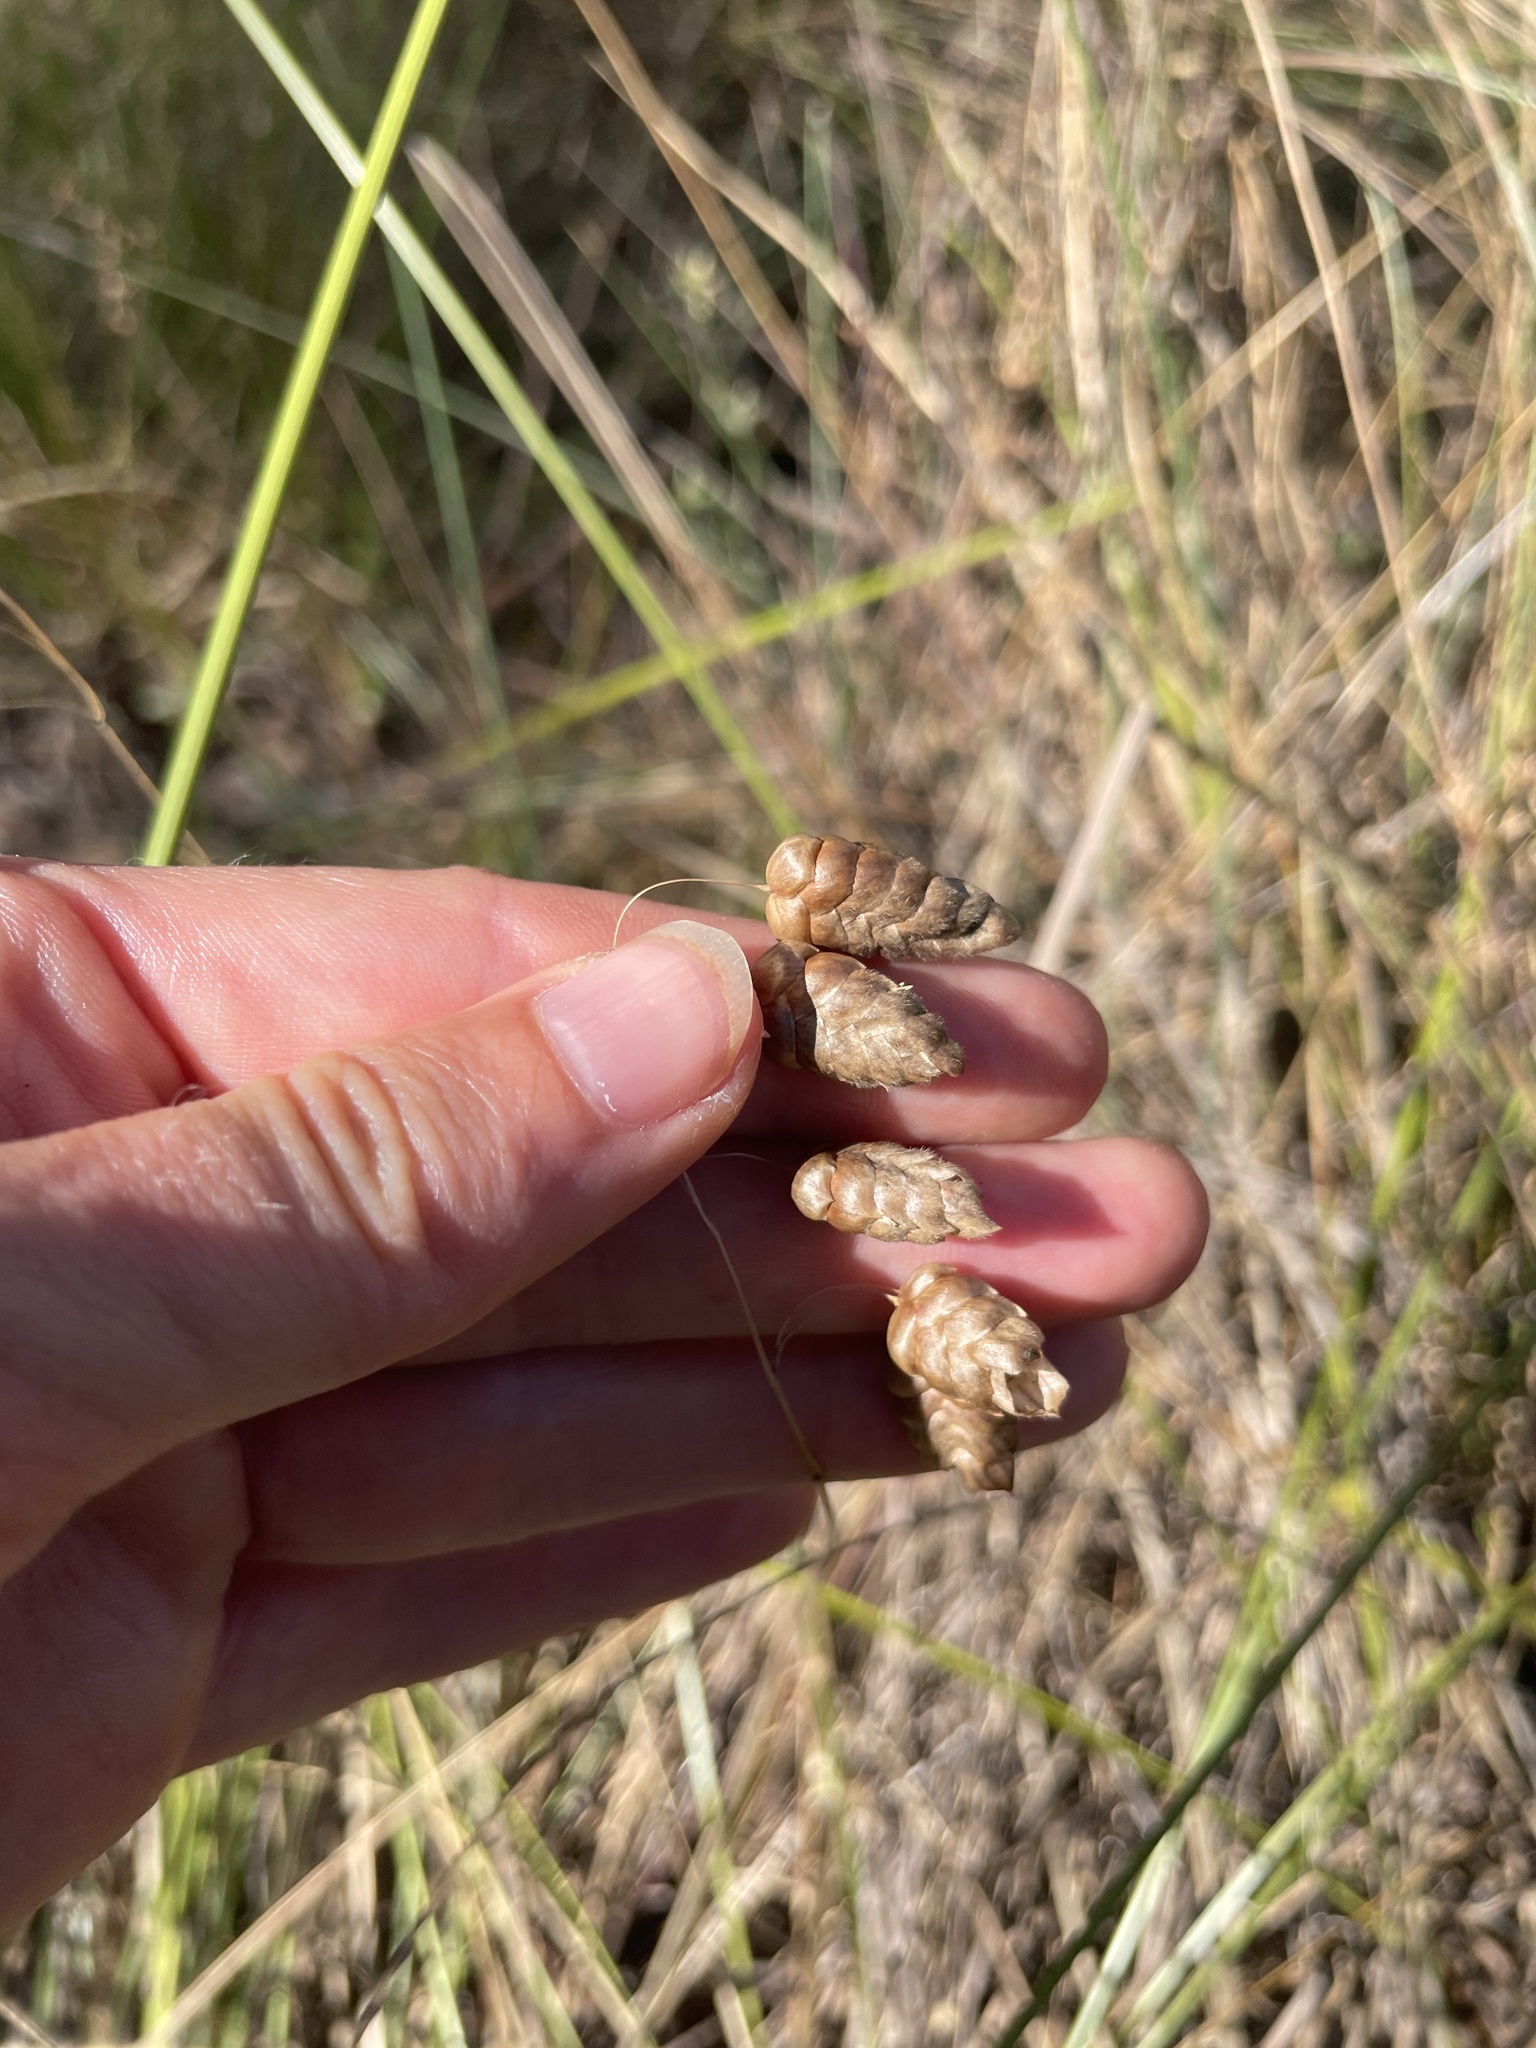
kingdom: Plantae
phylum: Tracheophyta
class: Liliopsida
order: Poales
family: Poaceae
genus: Briza
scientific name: Briza maxima
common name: Big quakinggrass
